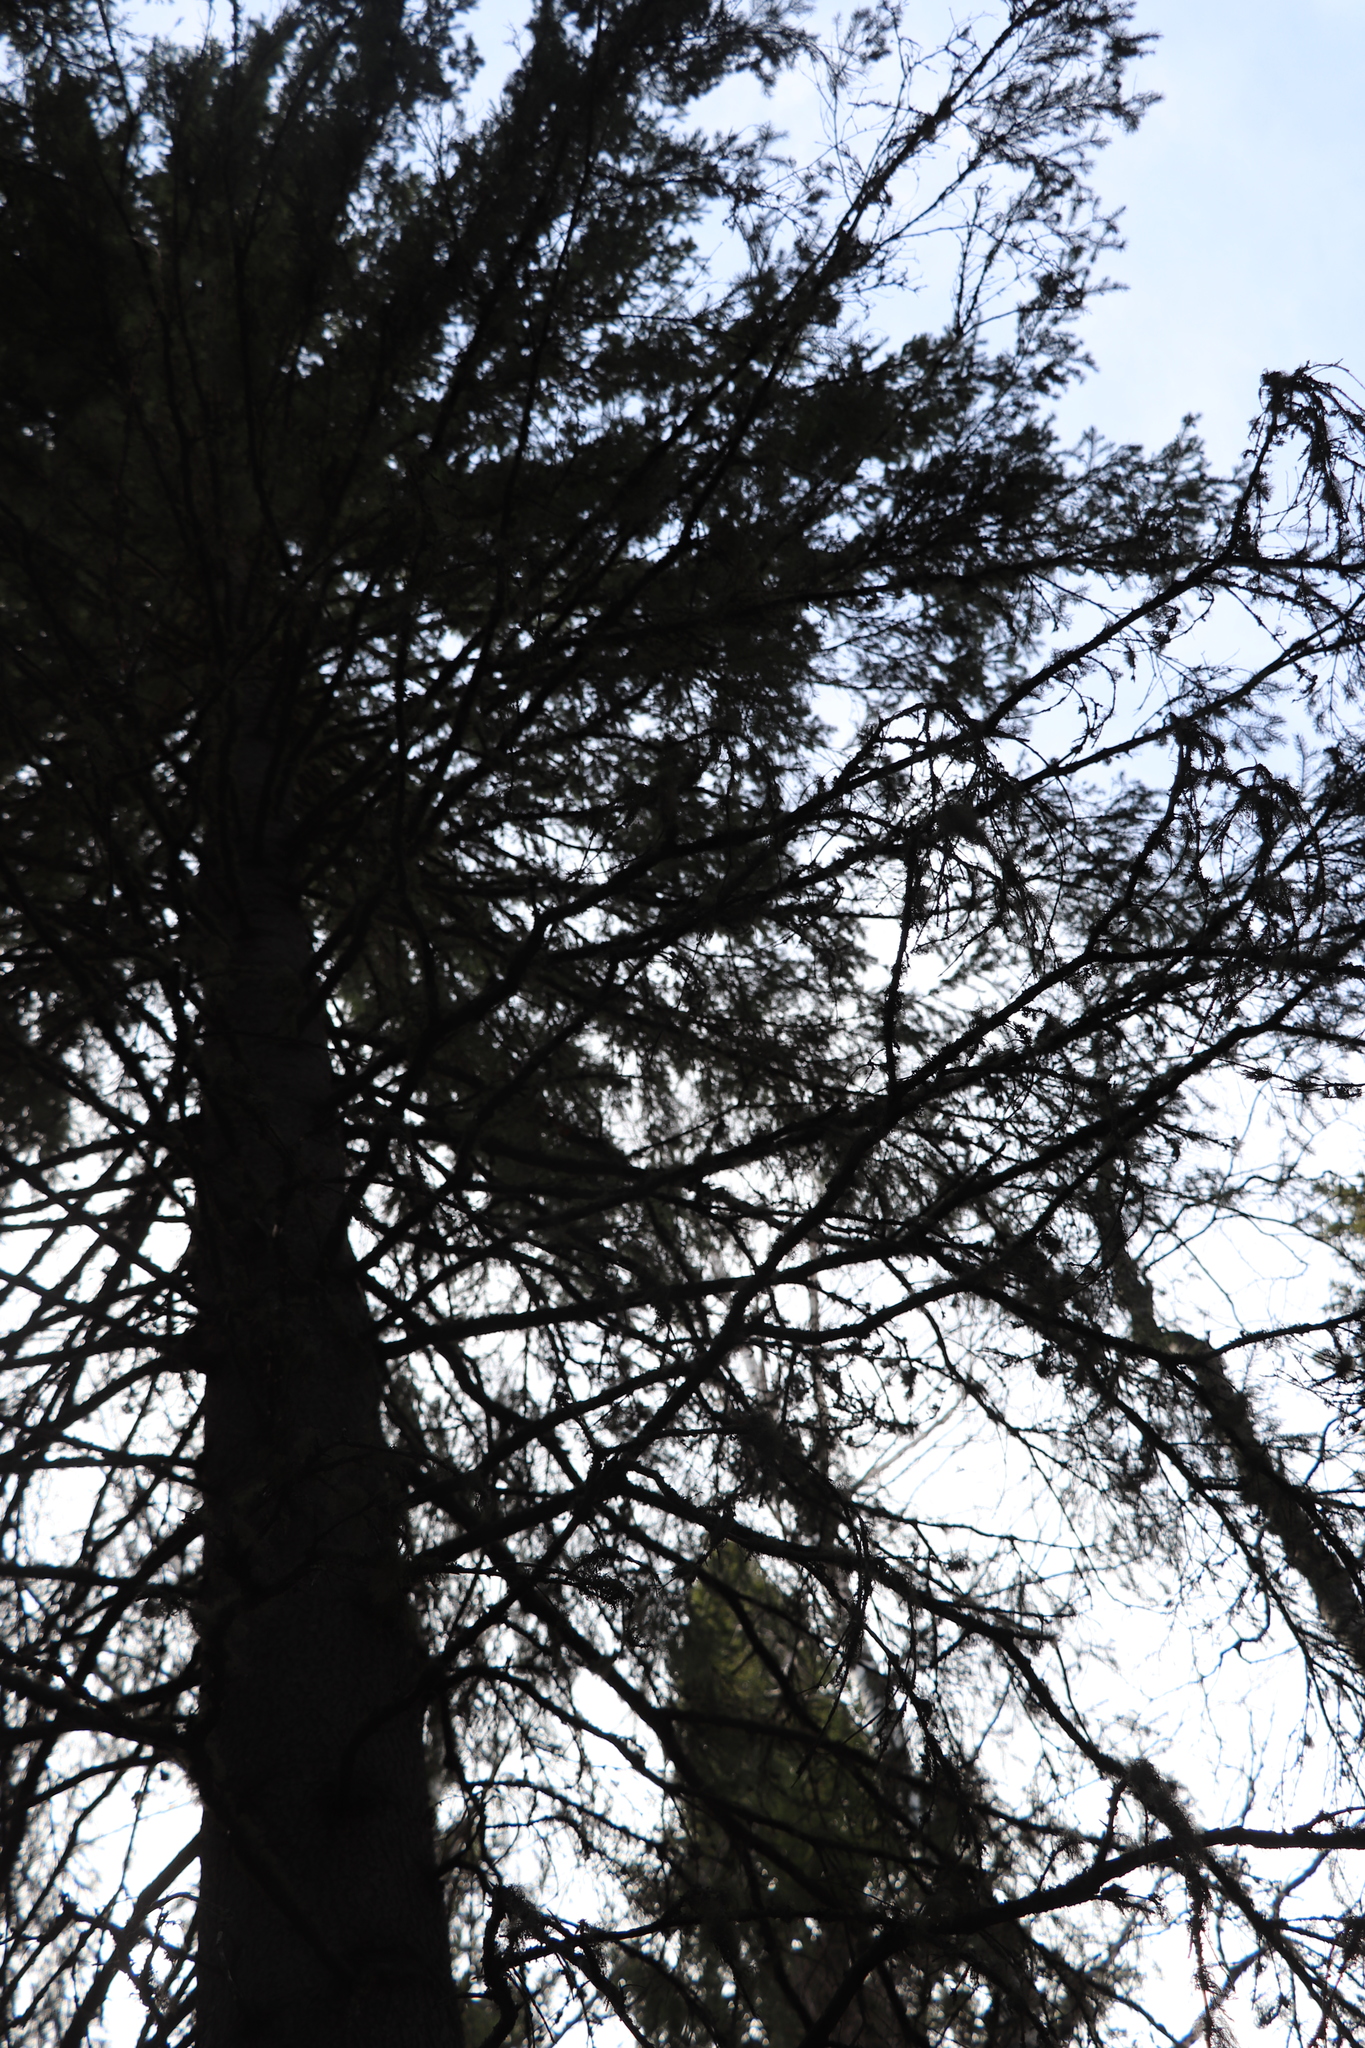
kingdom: Plantae
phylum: Tracheophyta
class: Pinopsida
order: Pinales
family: Pinaceae
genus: Picea
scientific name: Picea obovata
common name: Siberian spruce
